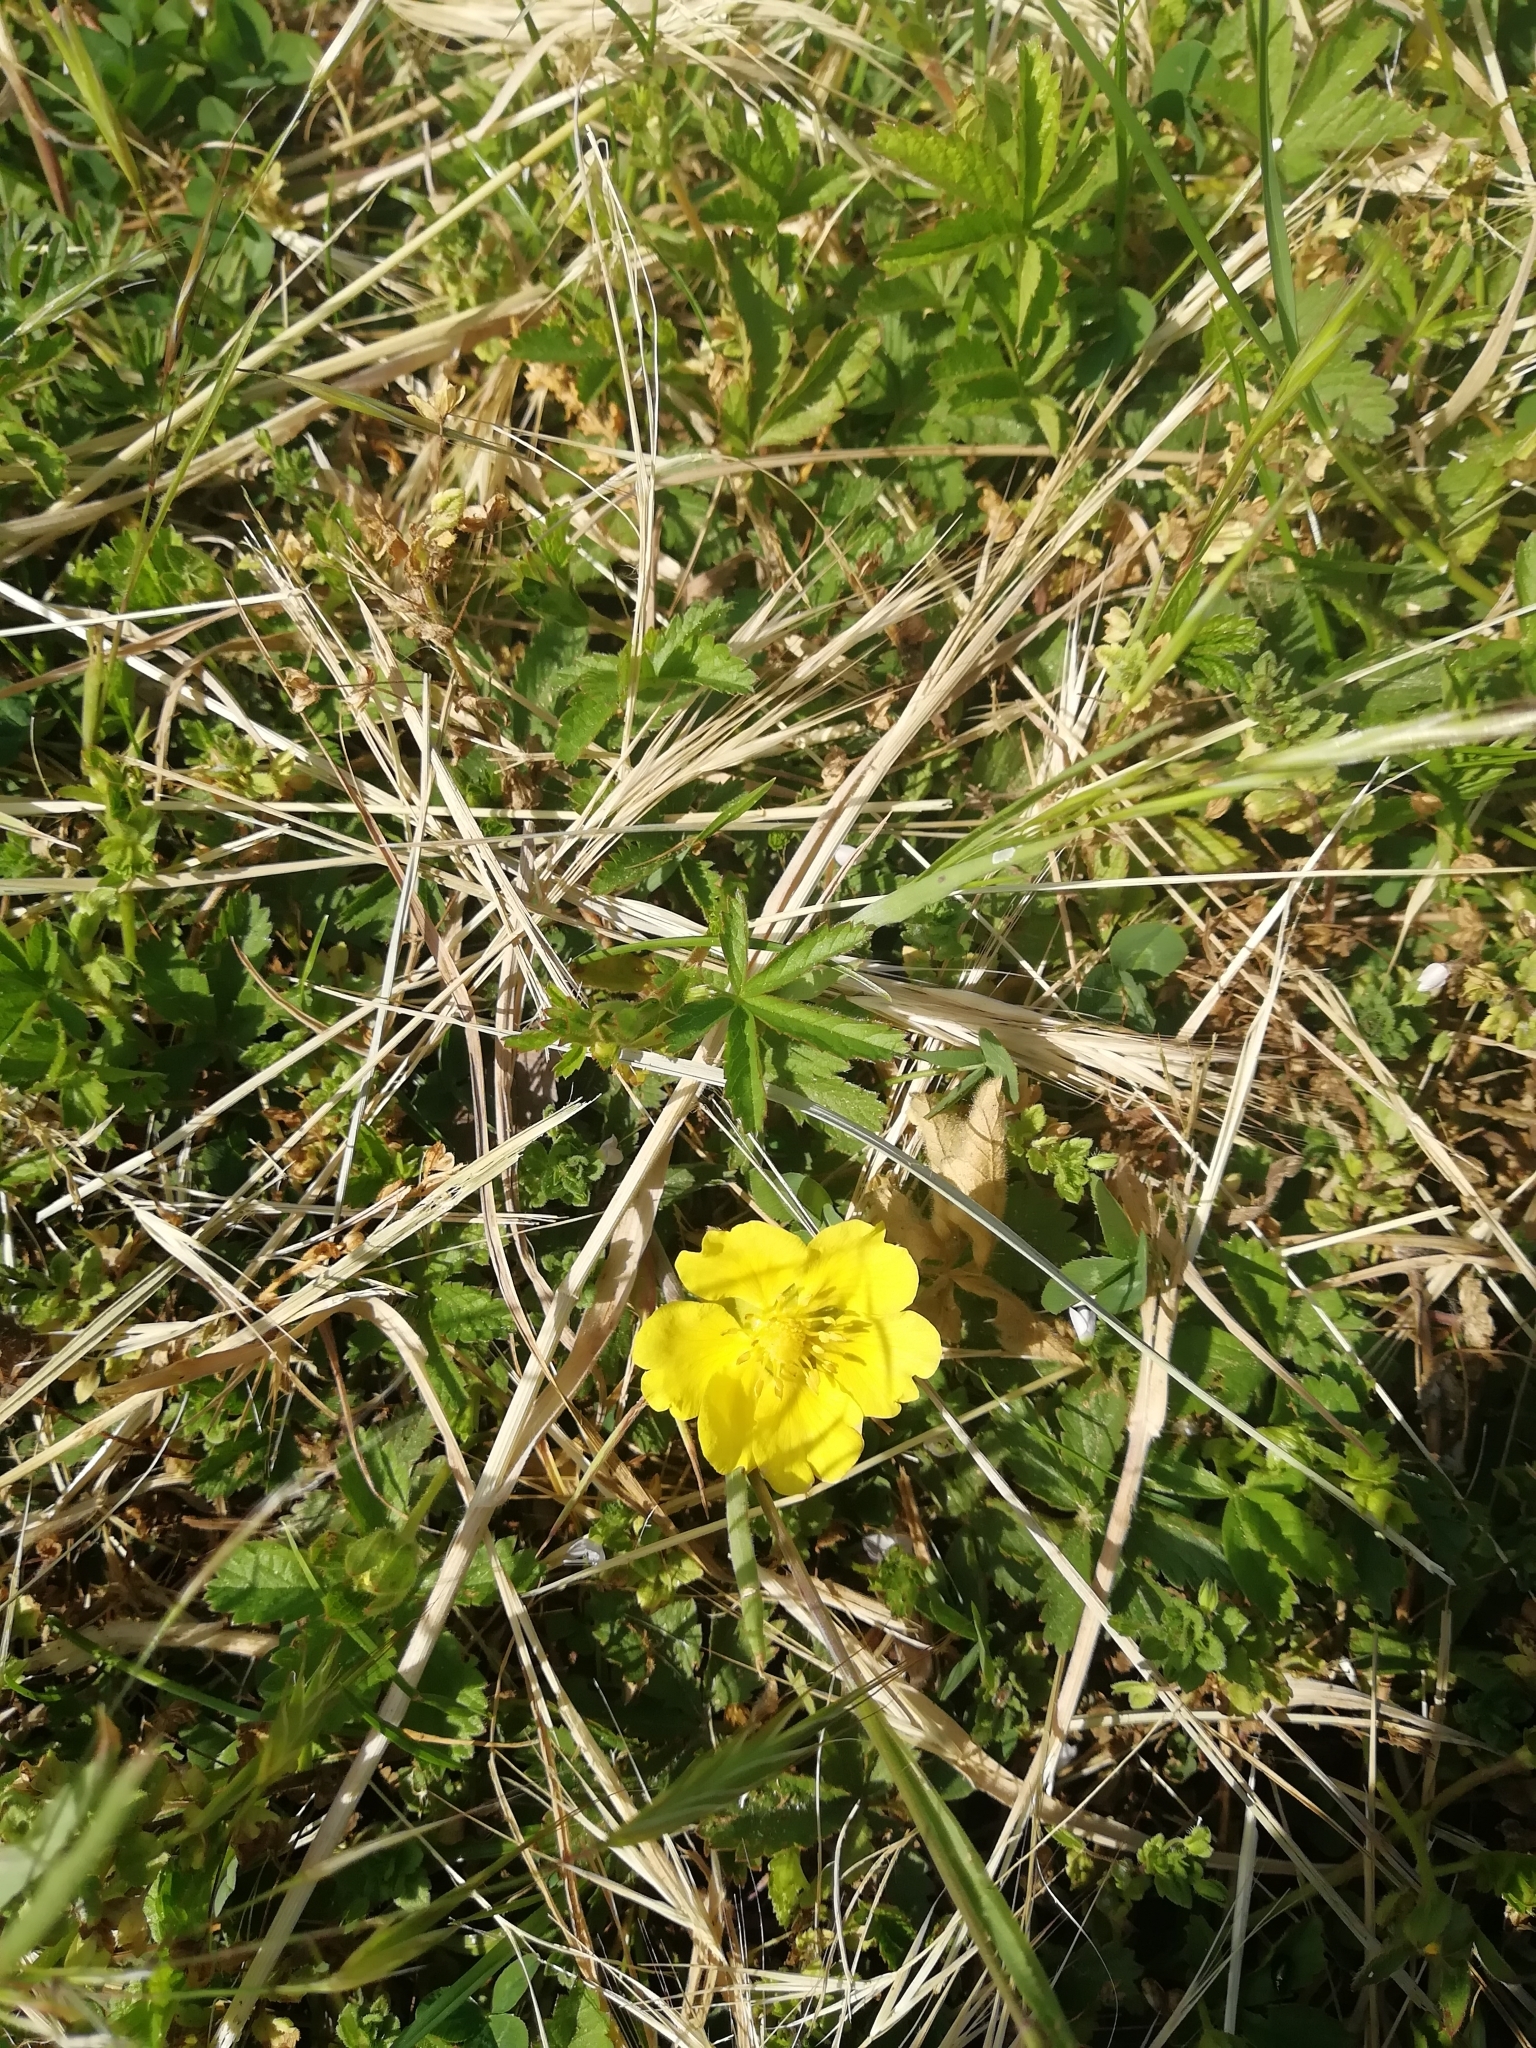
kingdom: Plantae
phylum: Tracheophyta
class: Magnoliopsida
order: Rosales
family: Rosaceae
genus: Potentilla
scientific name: Potentilla reptans
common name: Creeping cinquefoil
